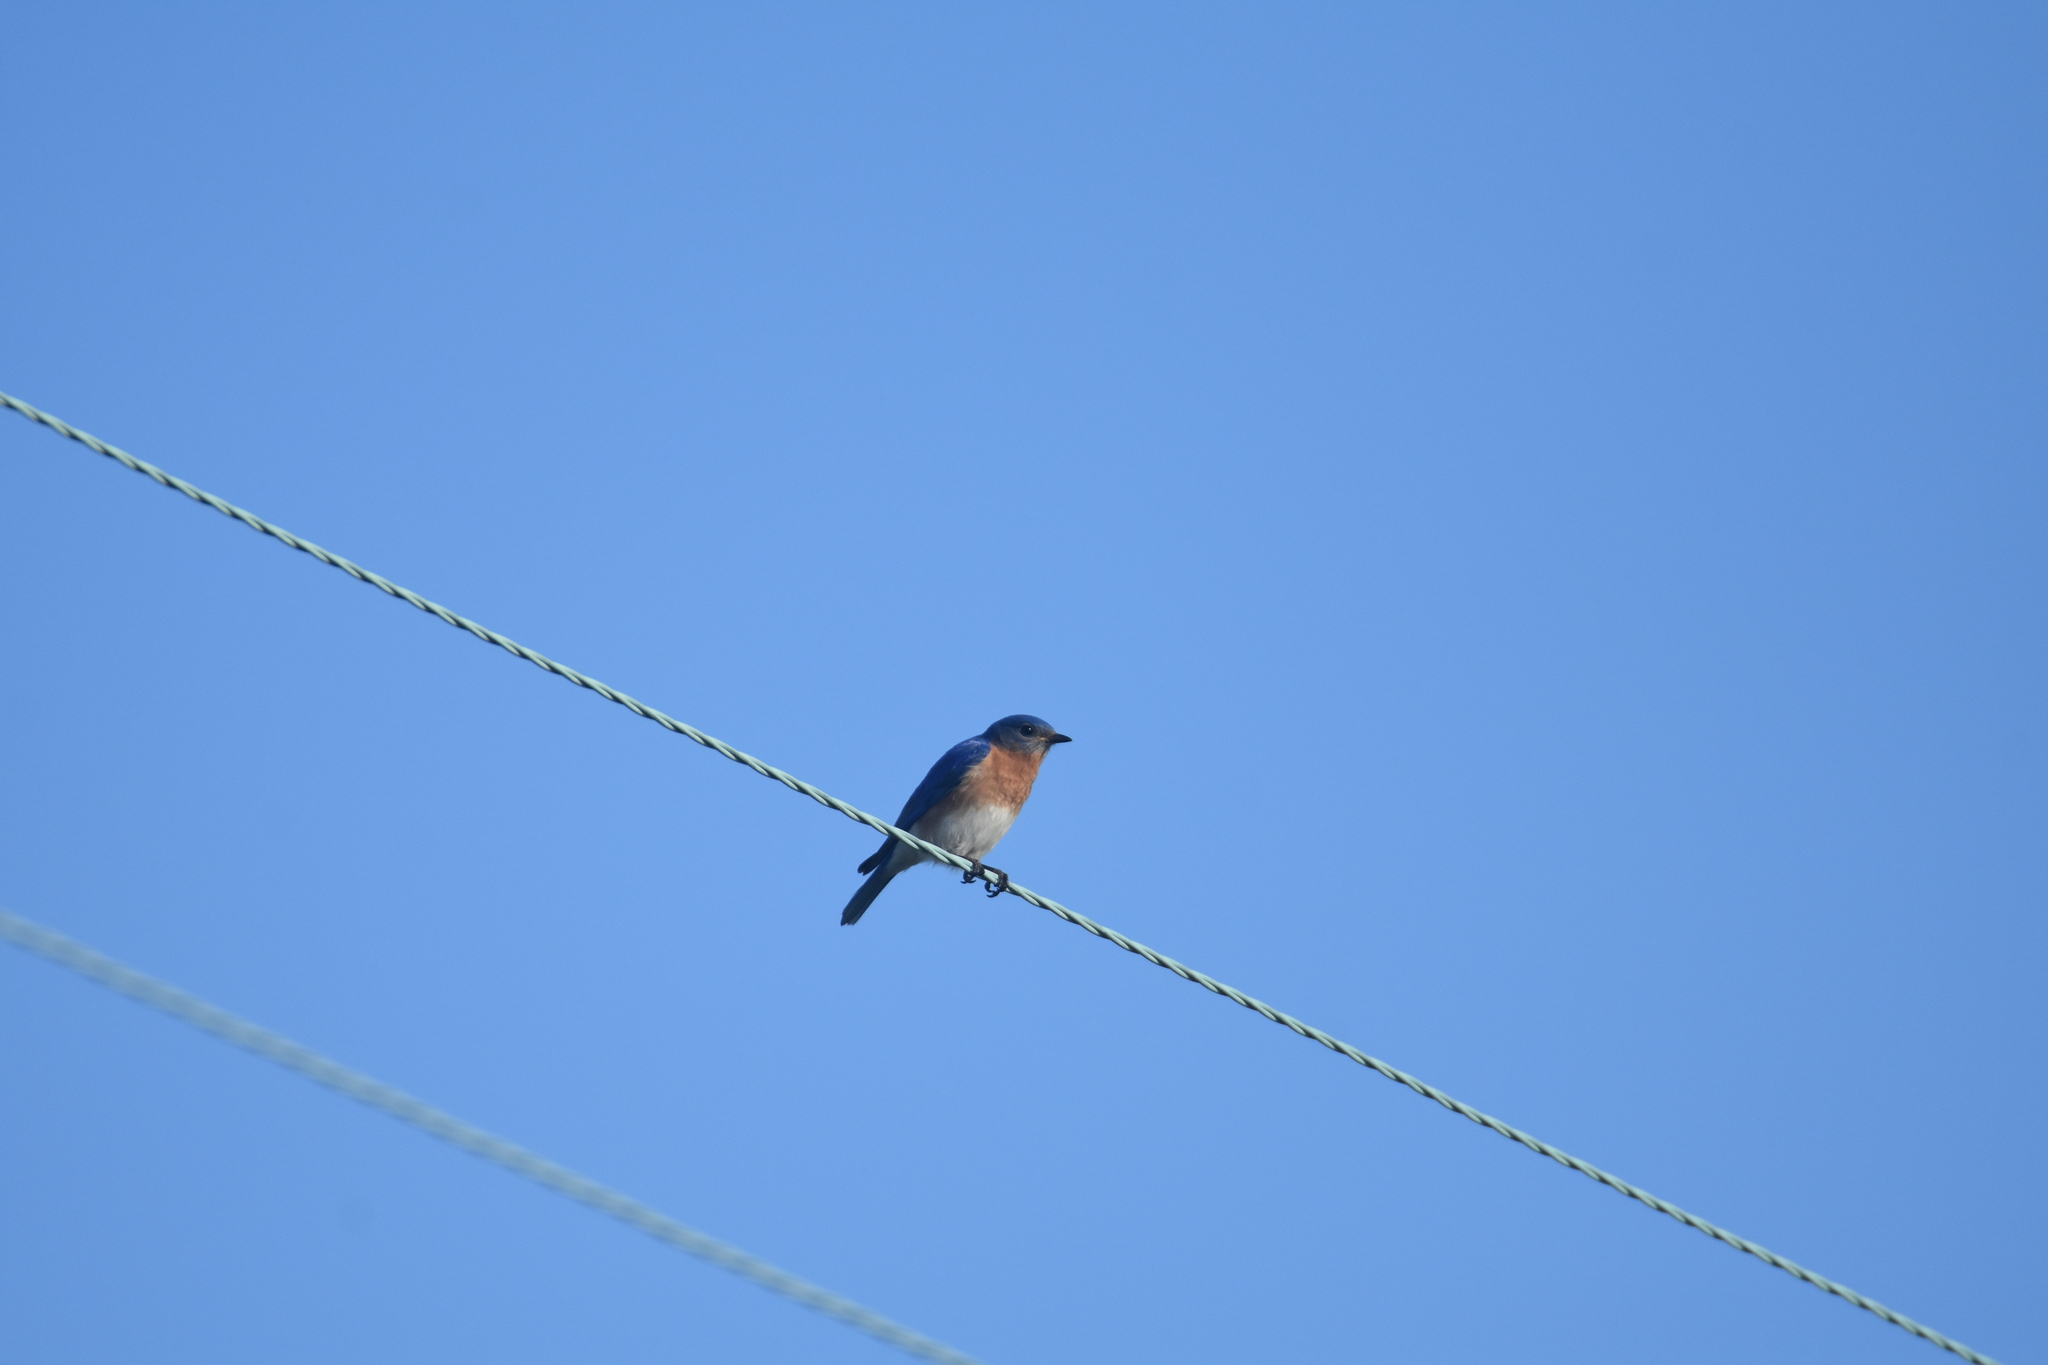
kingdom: Animalia
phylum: Chordata
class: Aves
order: Passeriformes
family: Turdidae
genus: Sialia
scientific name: Sialia sialis
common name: Eastern bluebird
